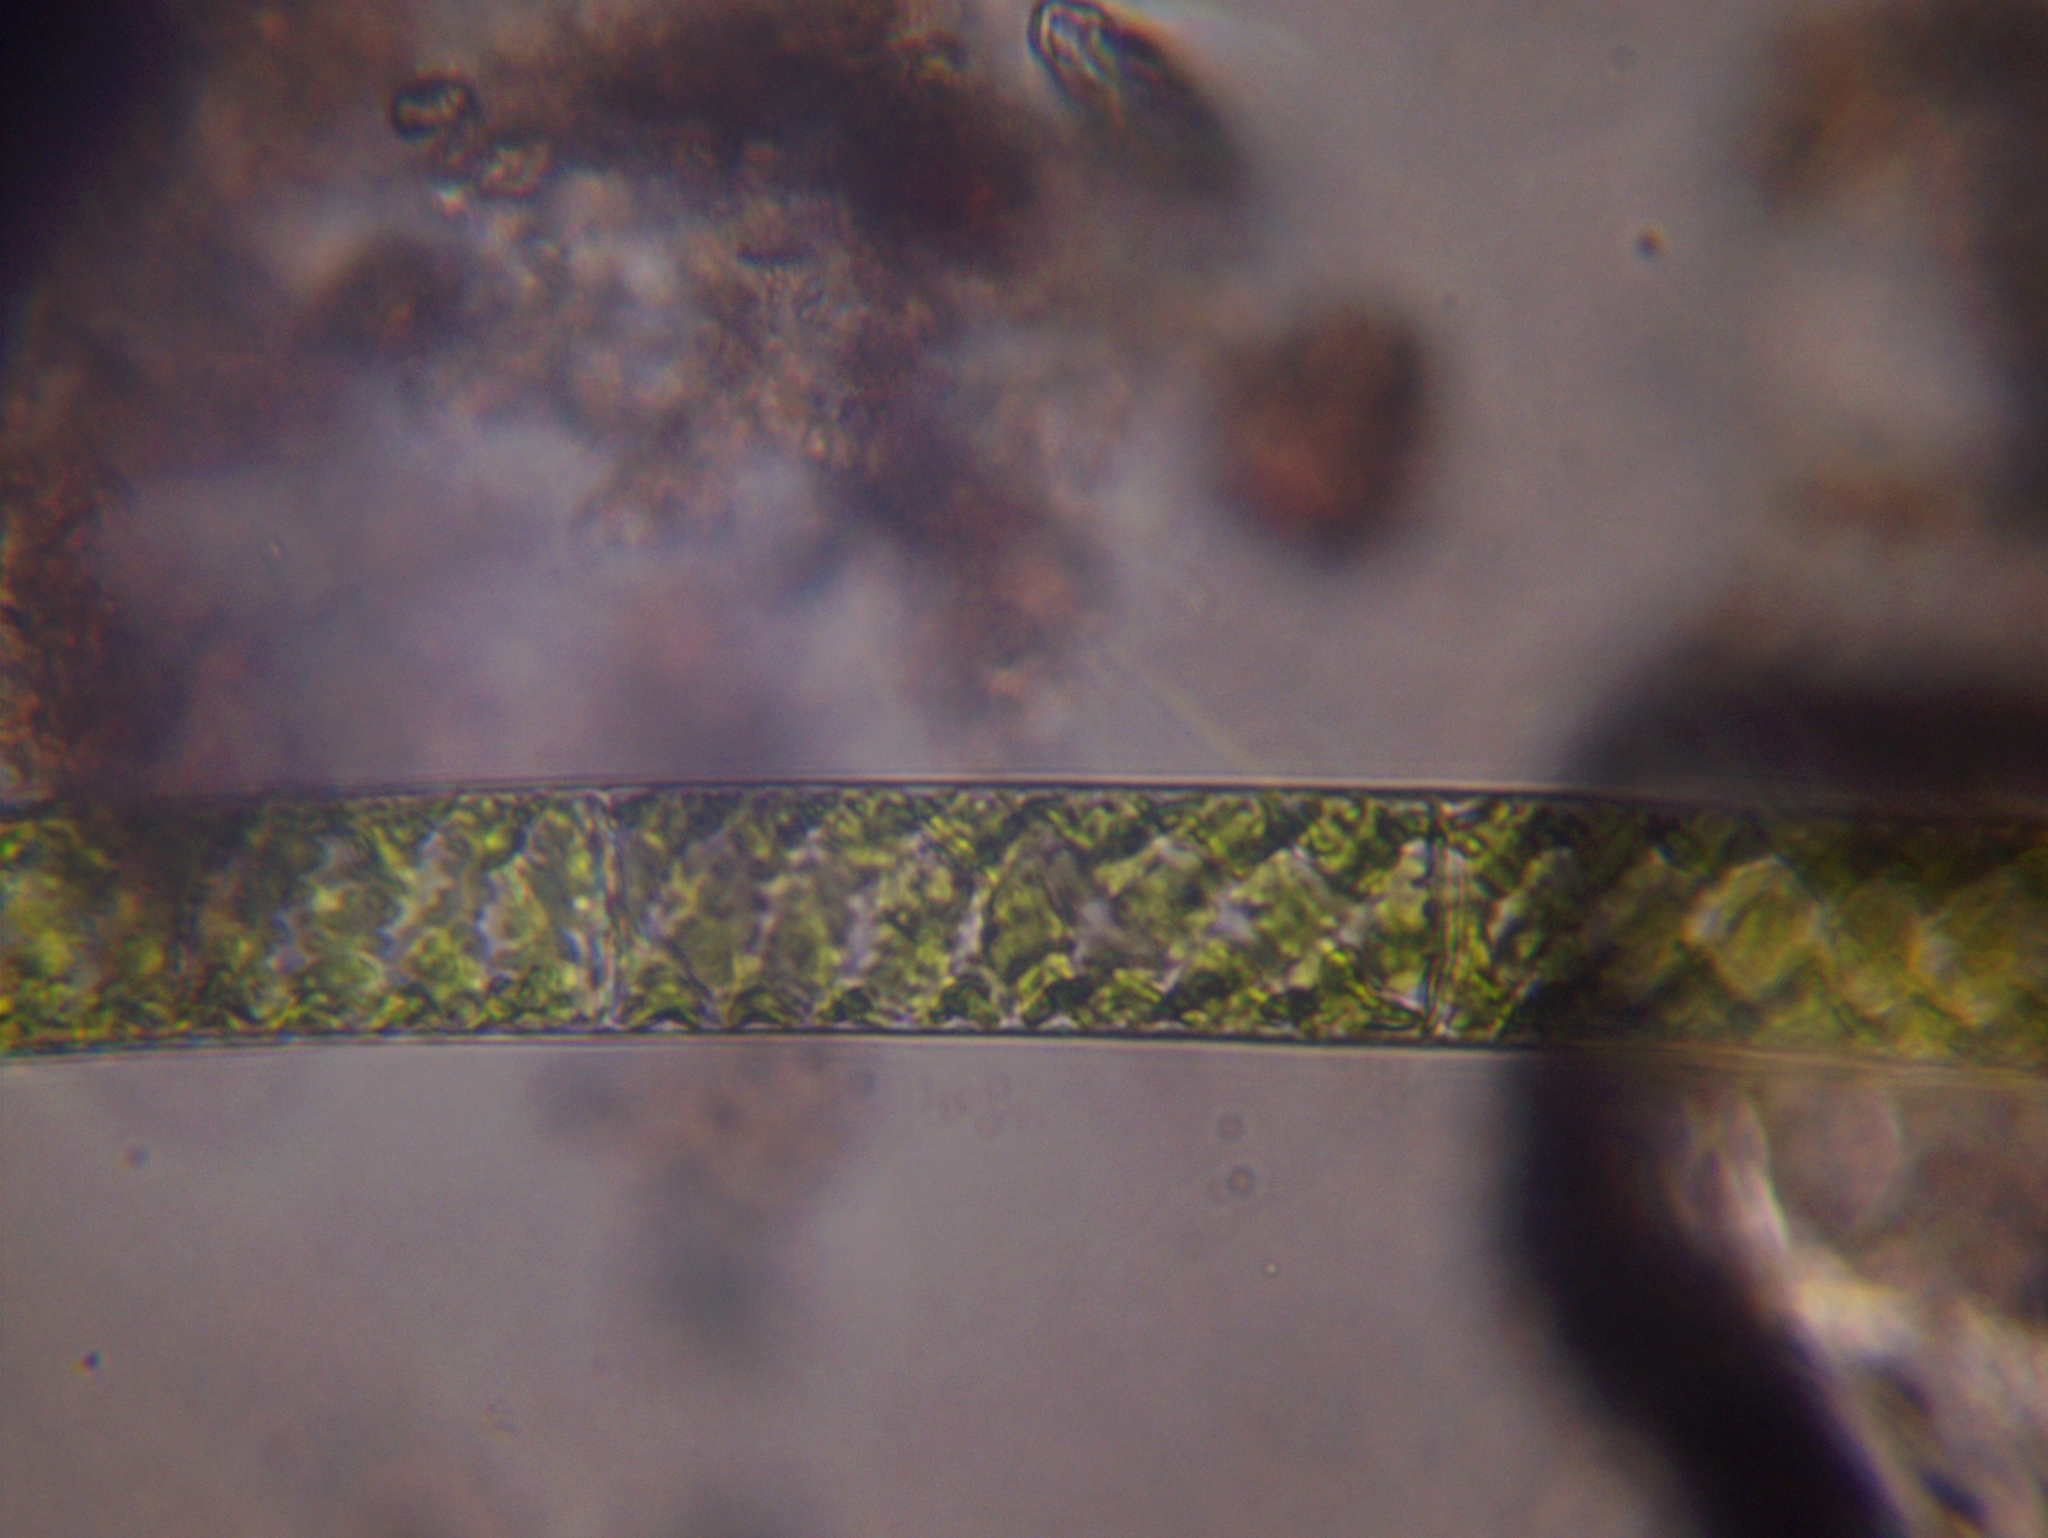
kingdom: Plantae
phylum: Charophyta
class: Zygnematophyceae
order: Zygnematales
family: Zygnemataceae
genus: Spirogyra
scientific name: Spirogyra
